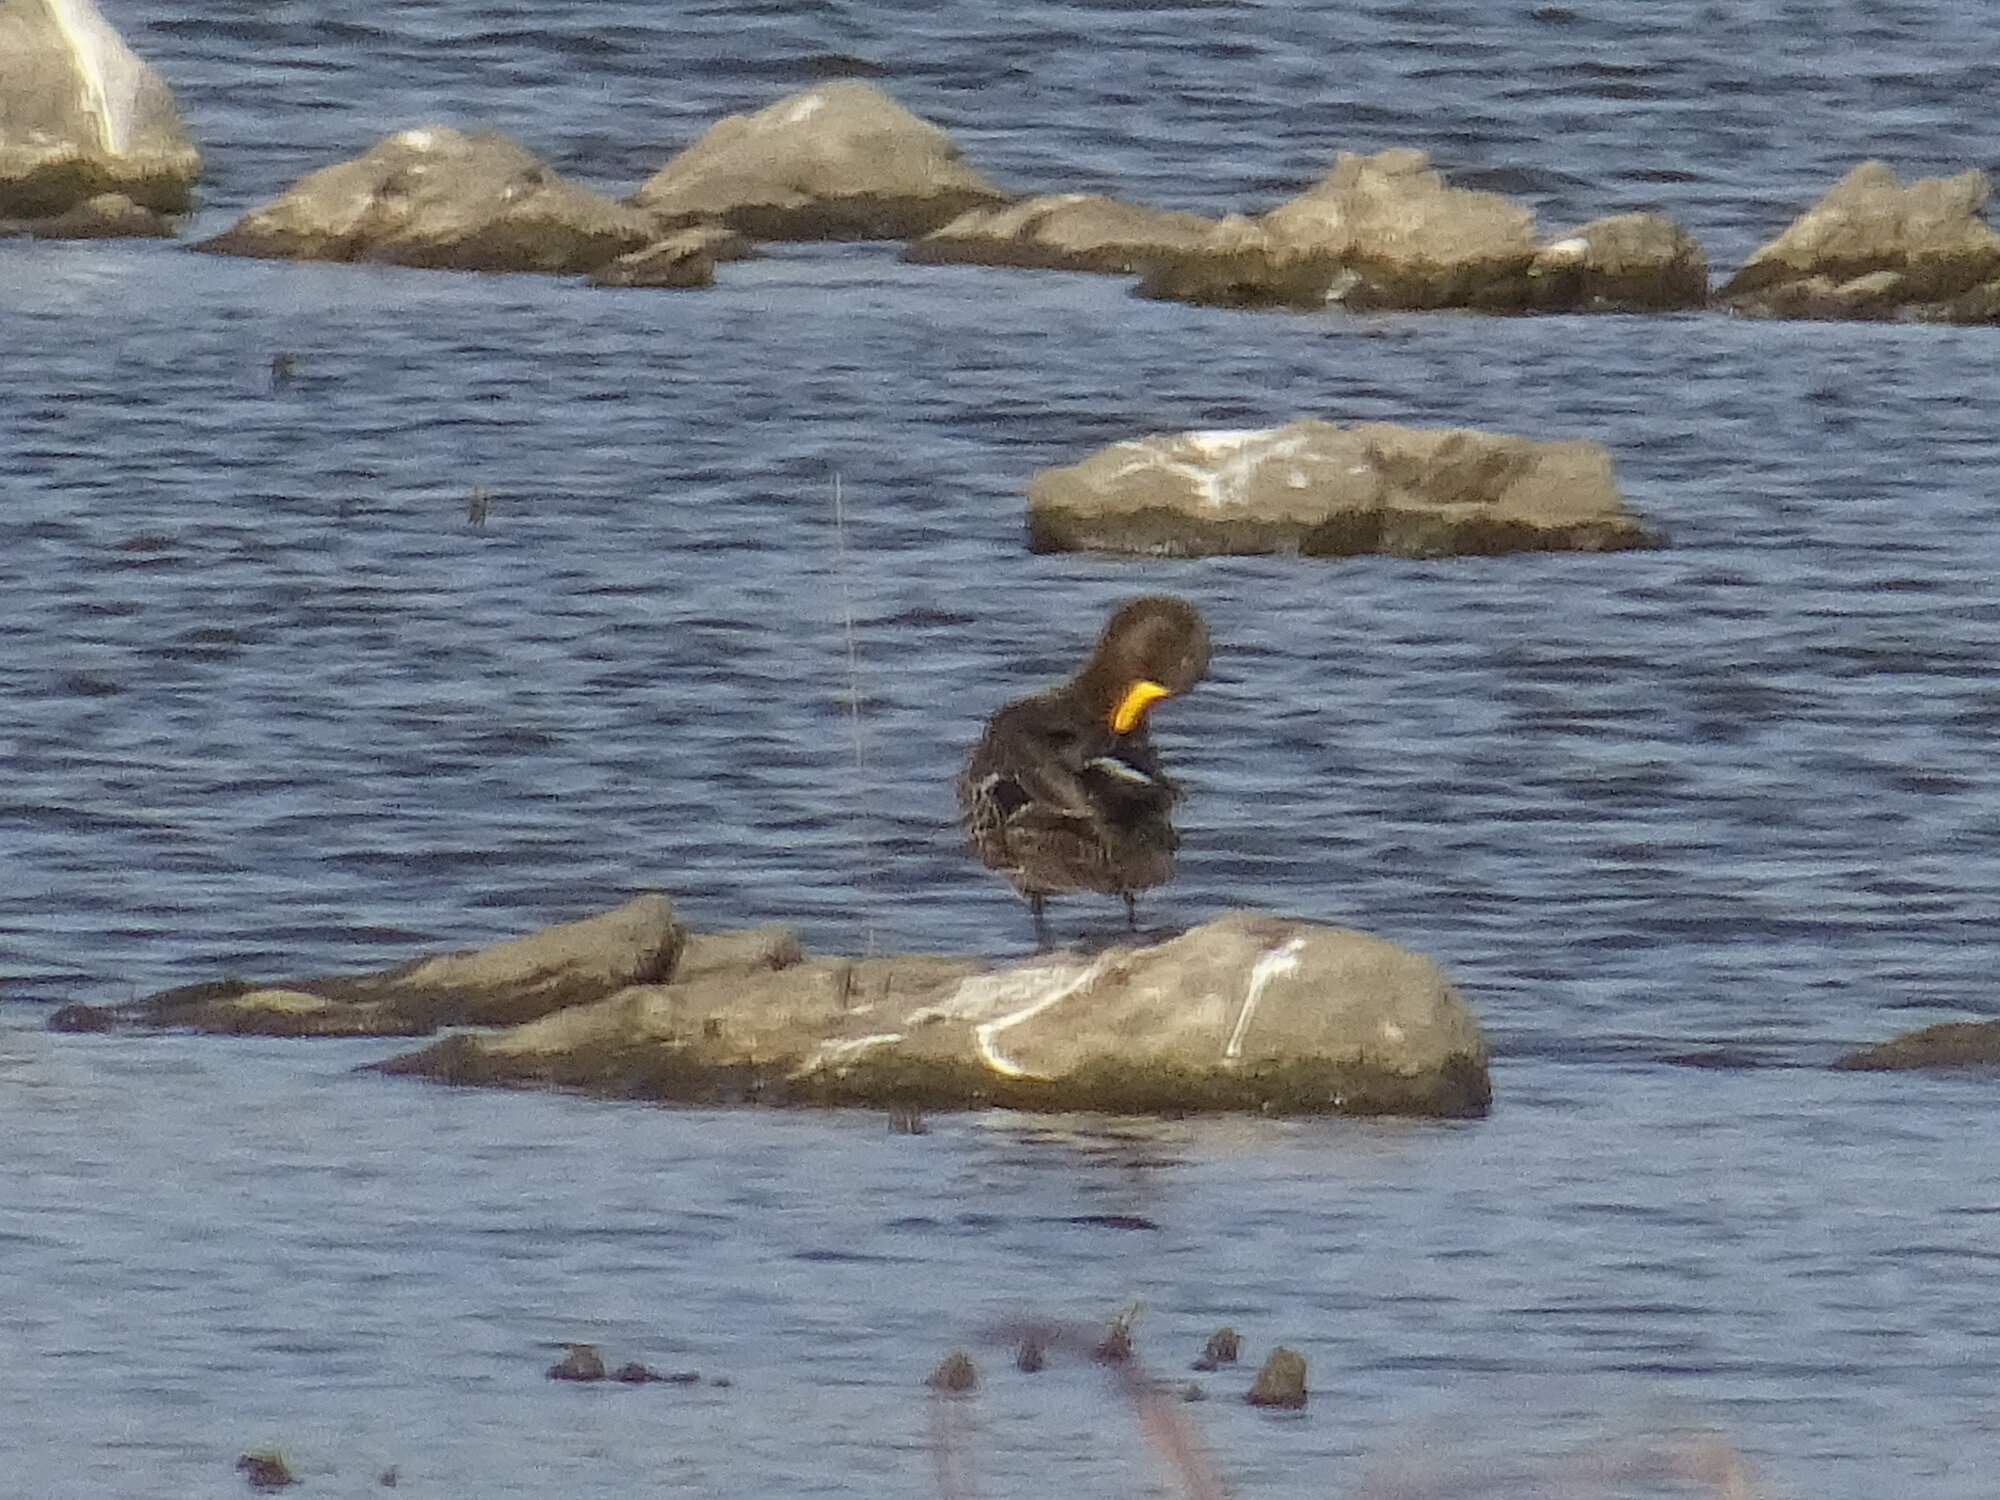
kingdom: Animalia
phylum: Chordata
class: Aves
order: Anseriformes
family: Anatidae
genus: Anas
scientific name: Anas undulata
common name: Yellow-billed duck
